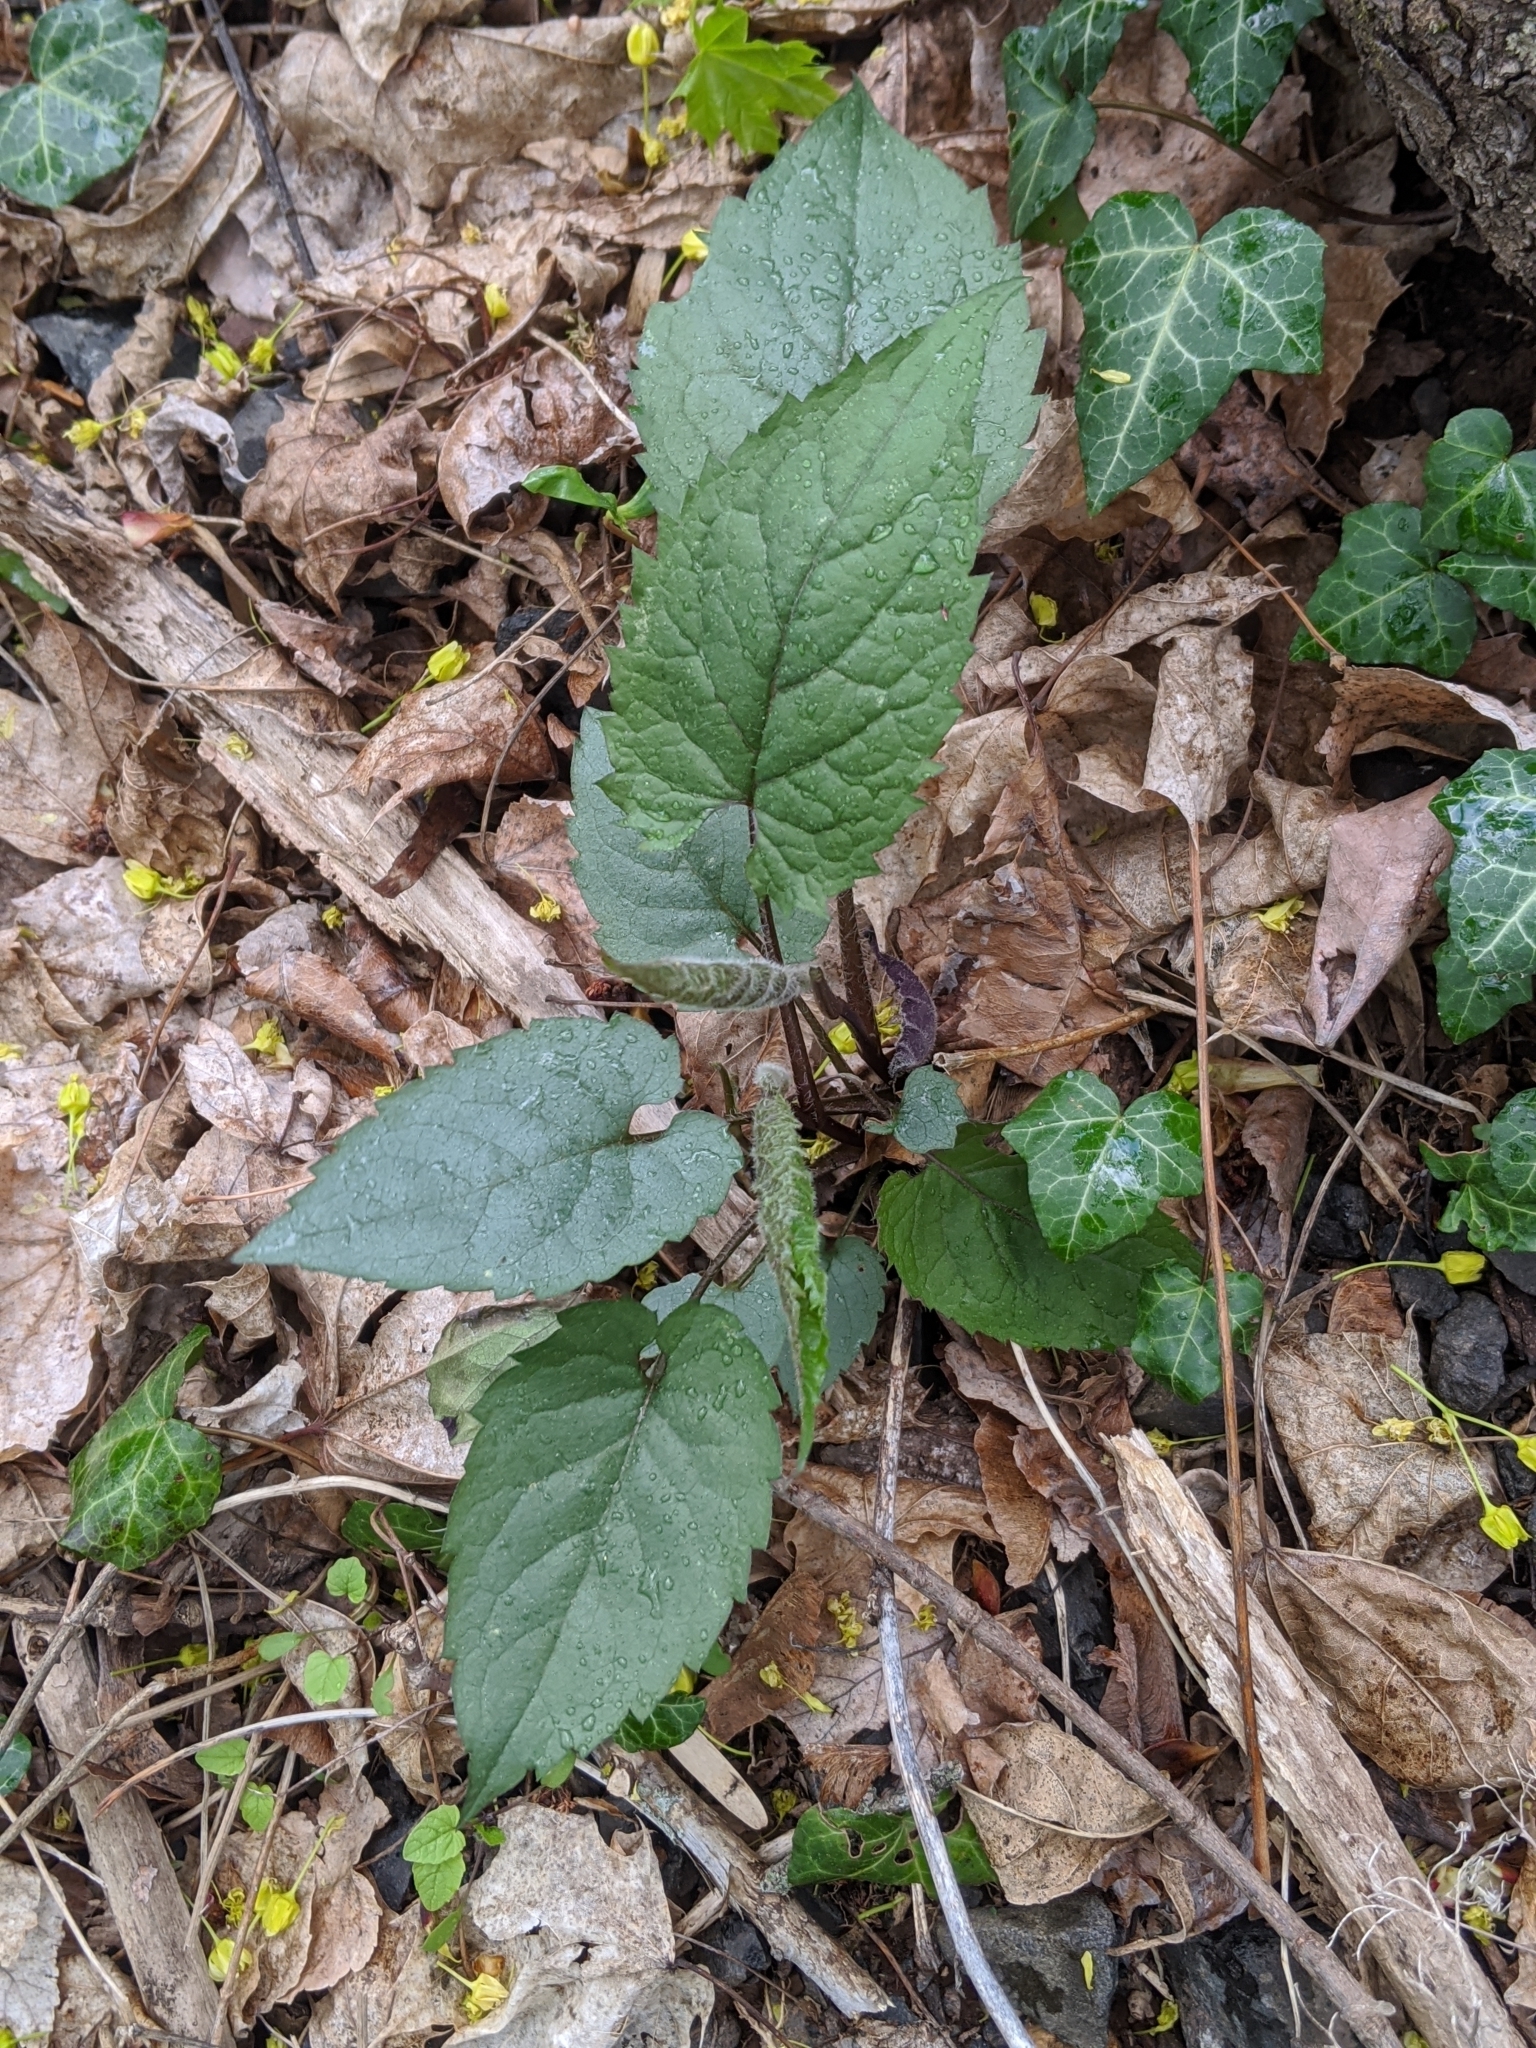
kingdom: Plantae
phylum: Tracheophyta
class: Magnoliopsida
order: Asterales
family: Asteraceae
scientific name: Asteraceae
